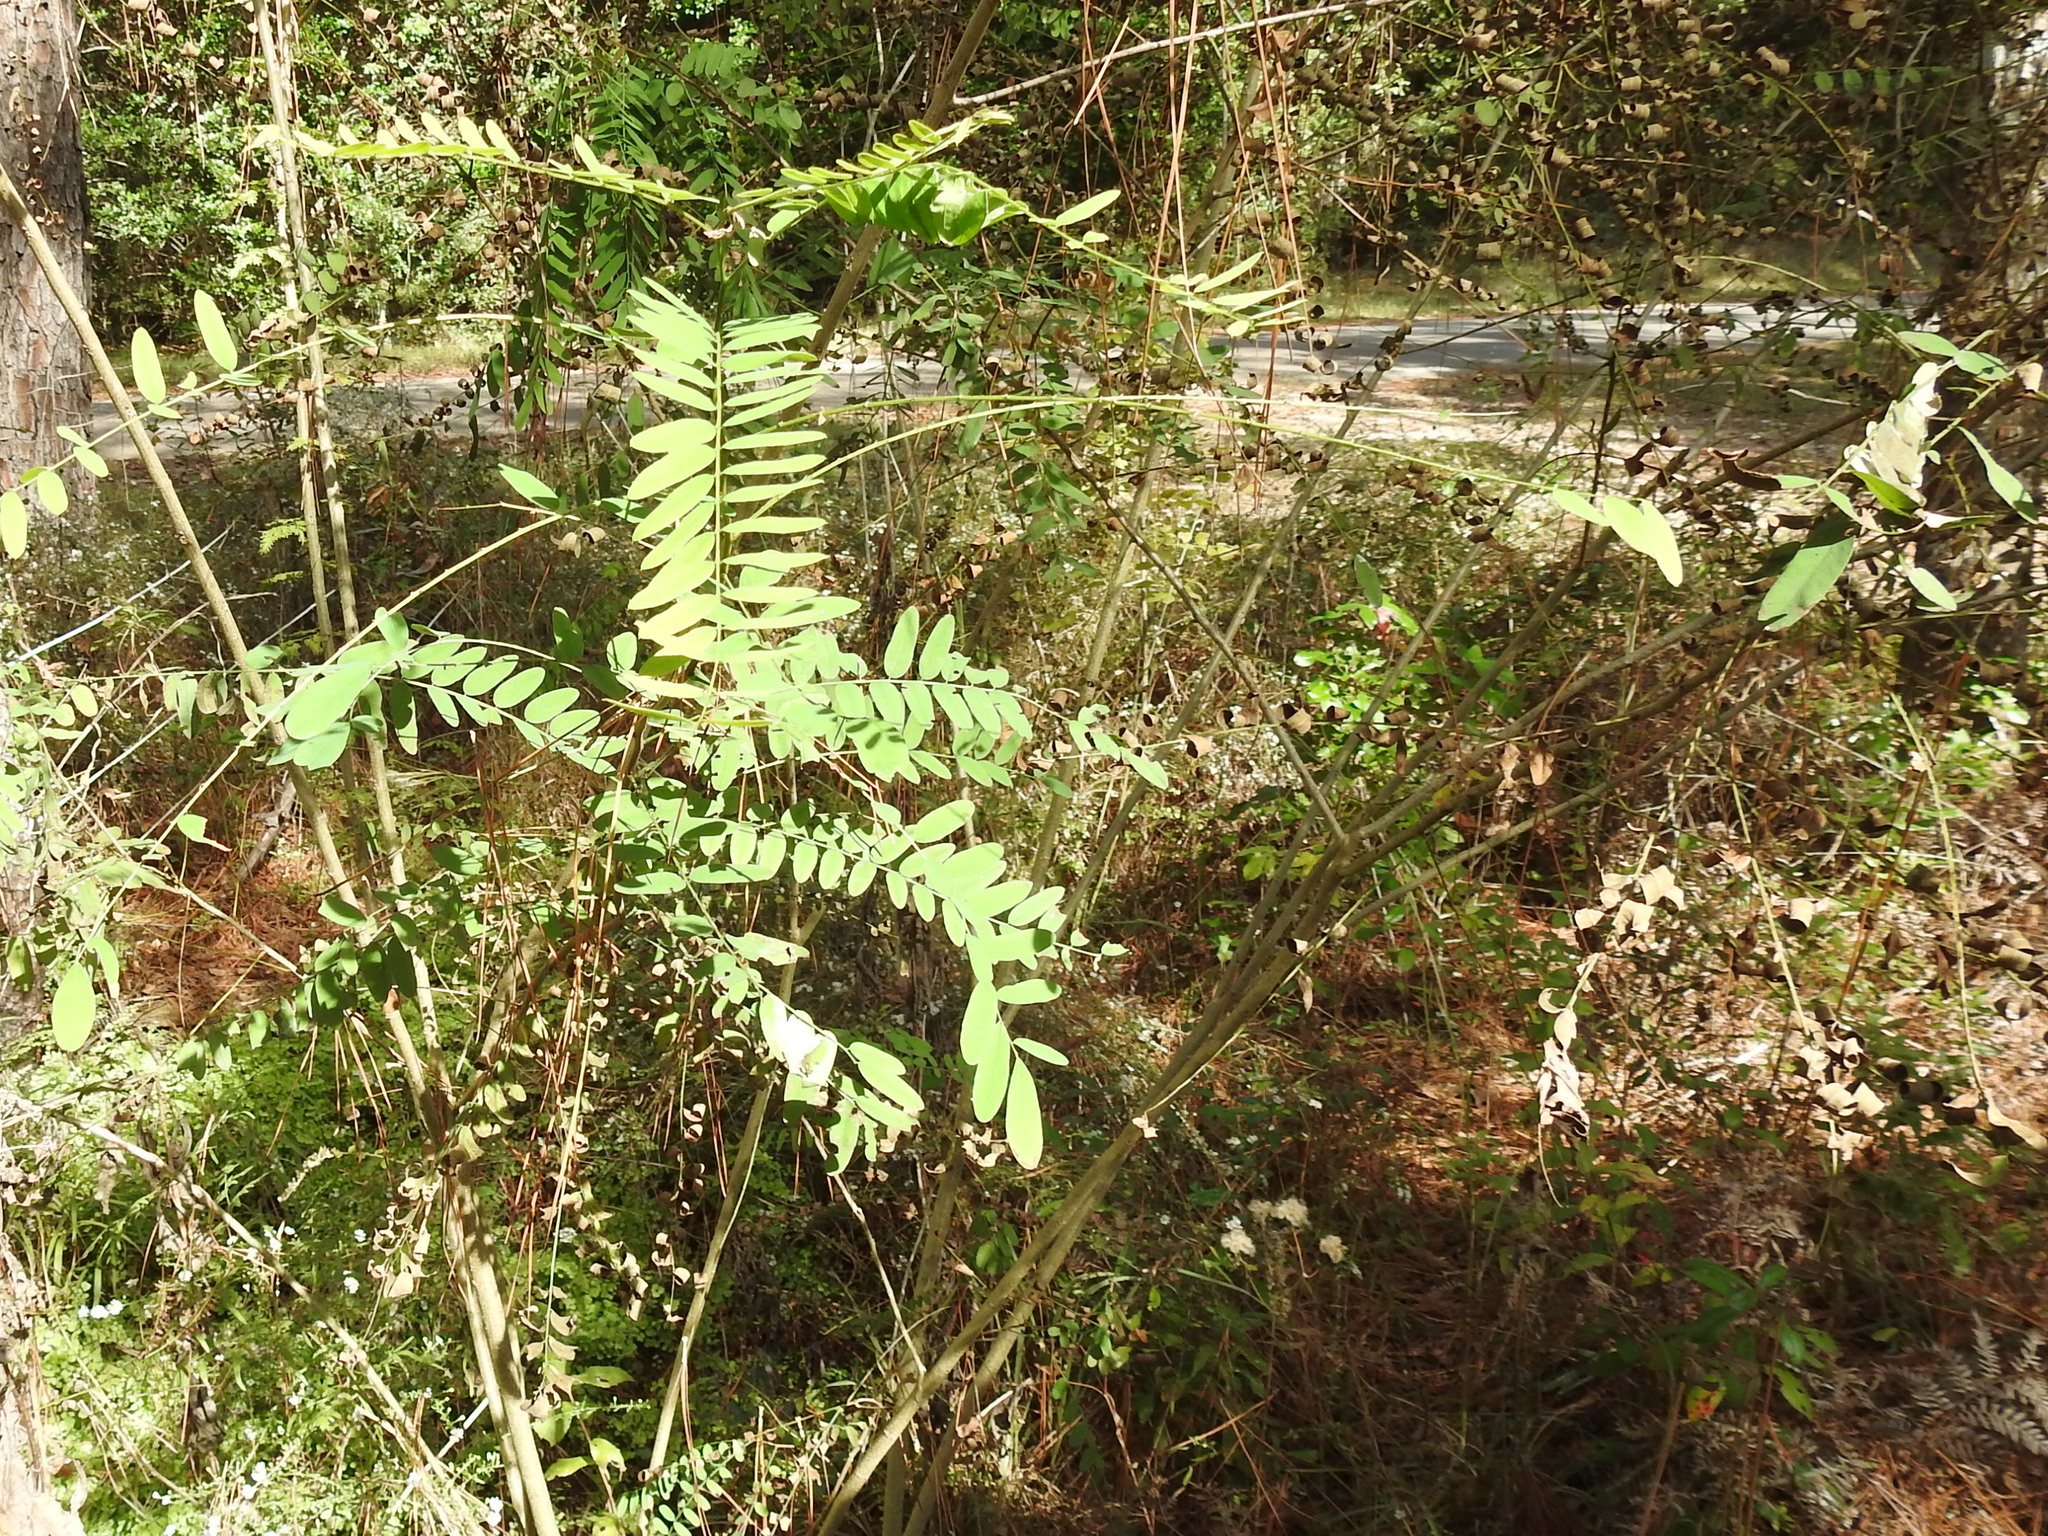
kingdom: Plantae
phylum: Tracheophyta
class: Magnoliopsida
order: Fabales
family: Fabaceae
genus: Amorpha
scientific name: Amorpha fruticosa
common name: False indigo
